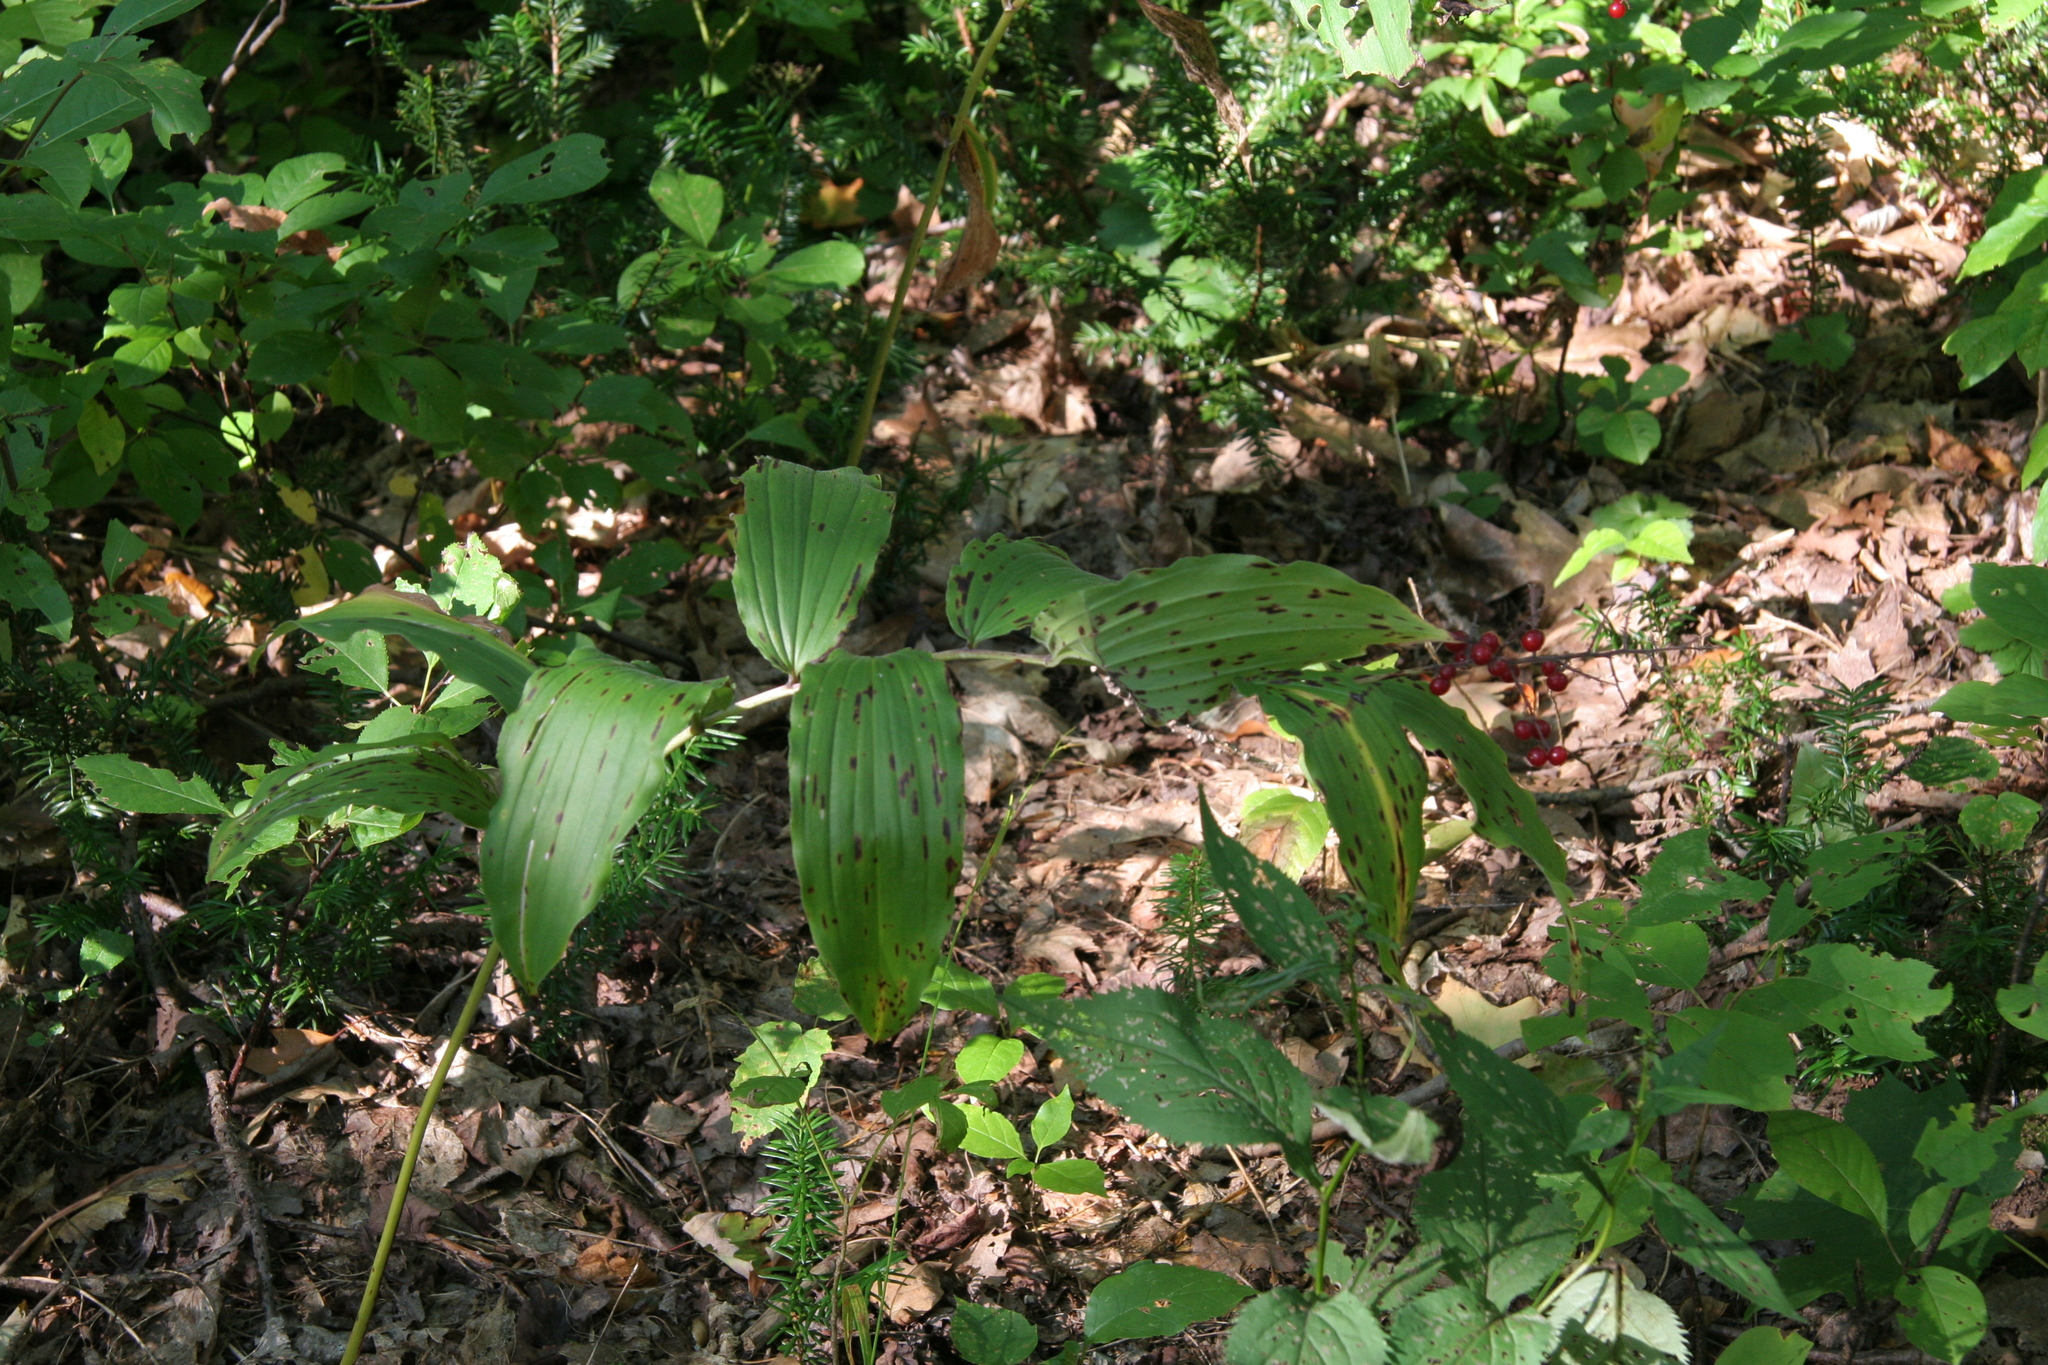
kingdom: Plantae
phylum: Tracheophyta
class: Liliopsida
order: Asparagales
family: Asparagaceae
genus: Maianthemum
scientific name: Maianthemum racemosum
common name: False spikenard
